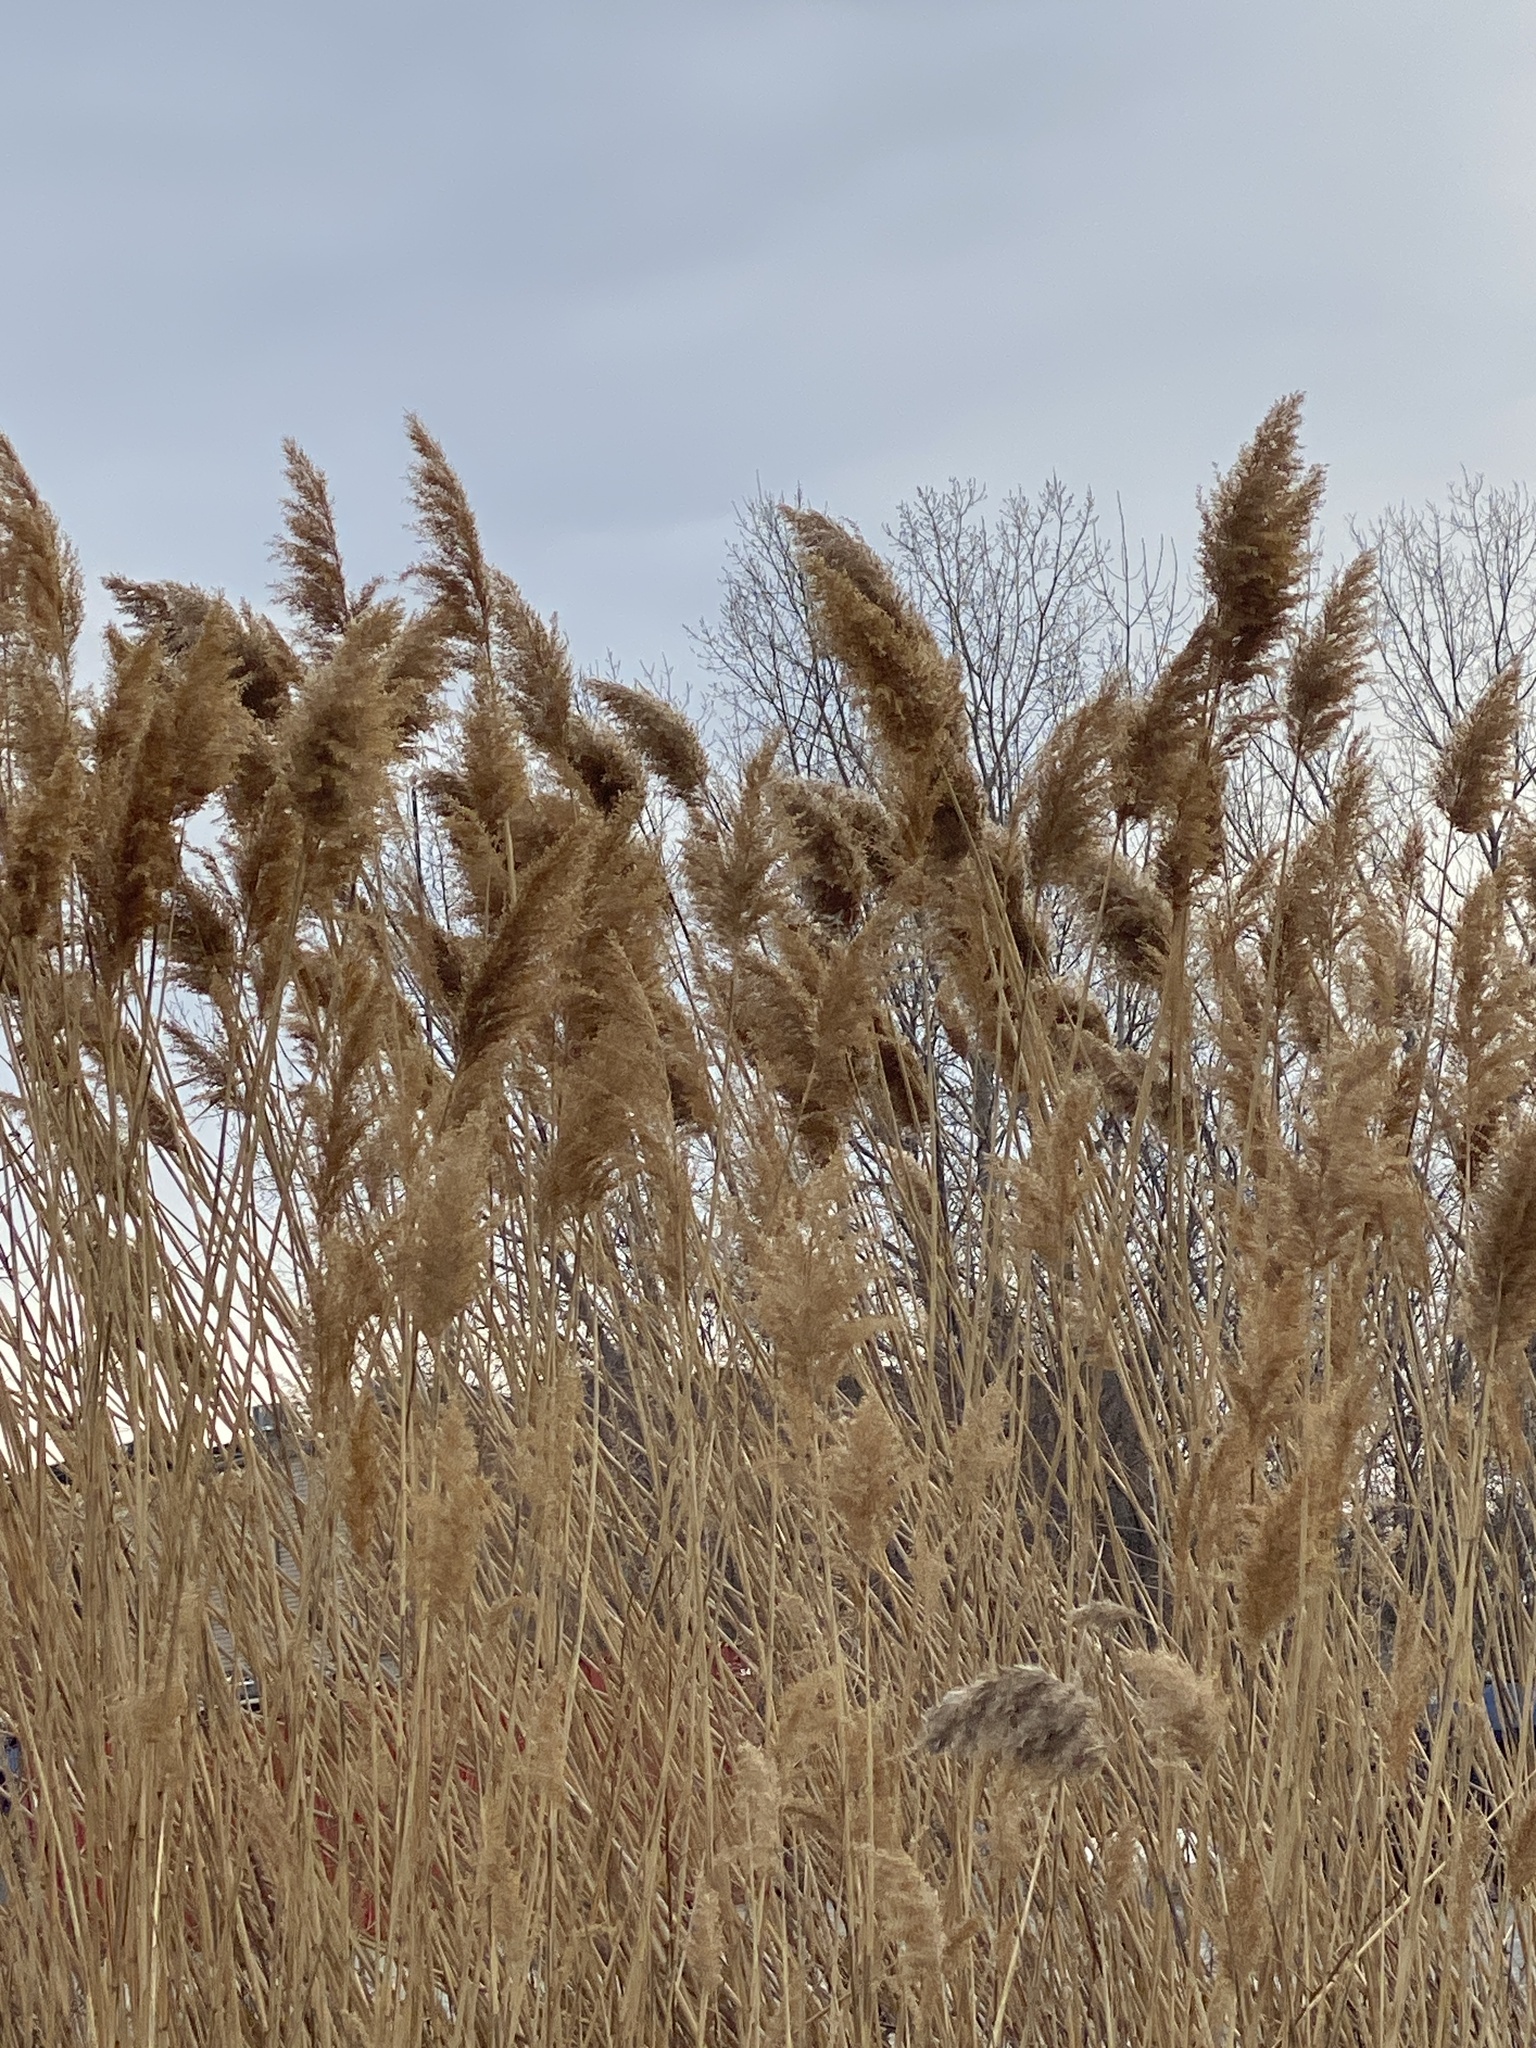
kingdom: Plantae
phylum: Tracheophyta
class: Liliopsida
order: Poales
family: Poaceae
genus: Phragmites
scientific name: Phragmites australis
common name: Common reed
